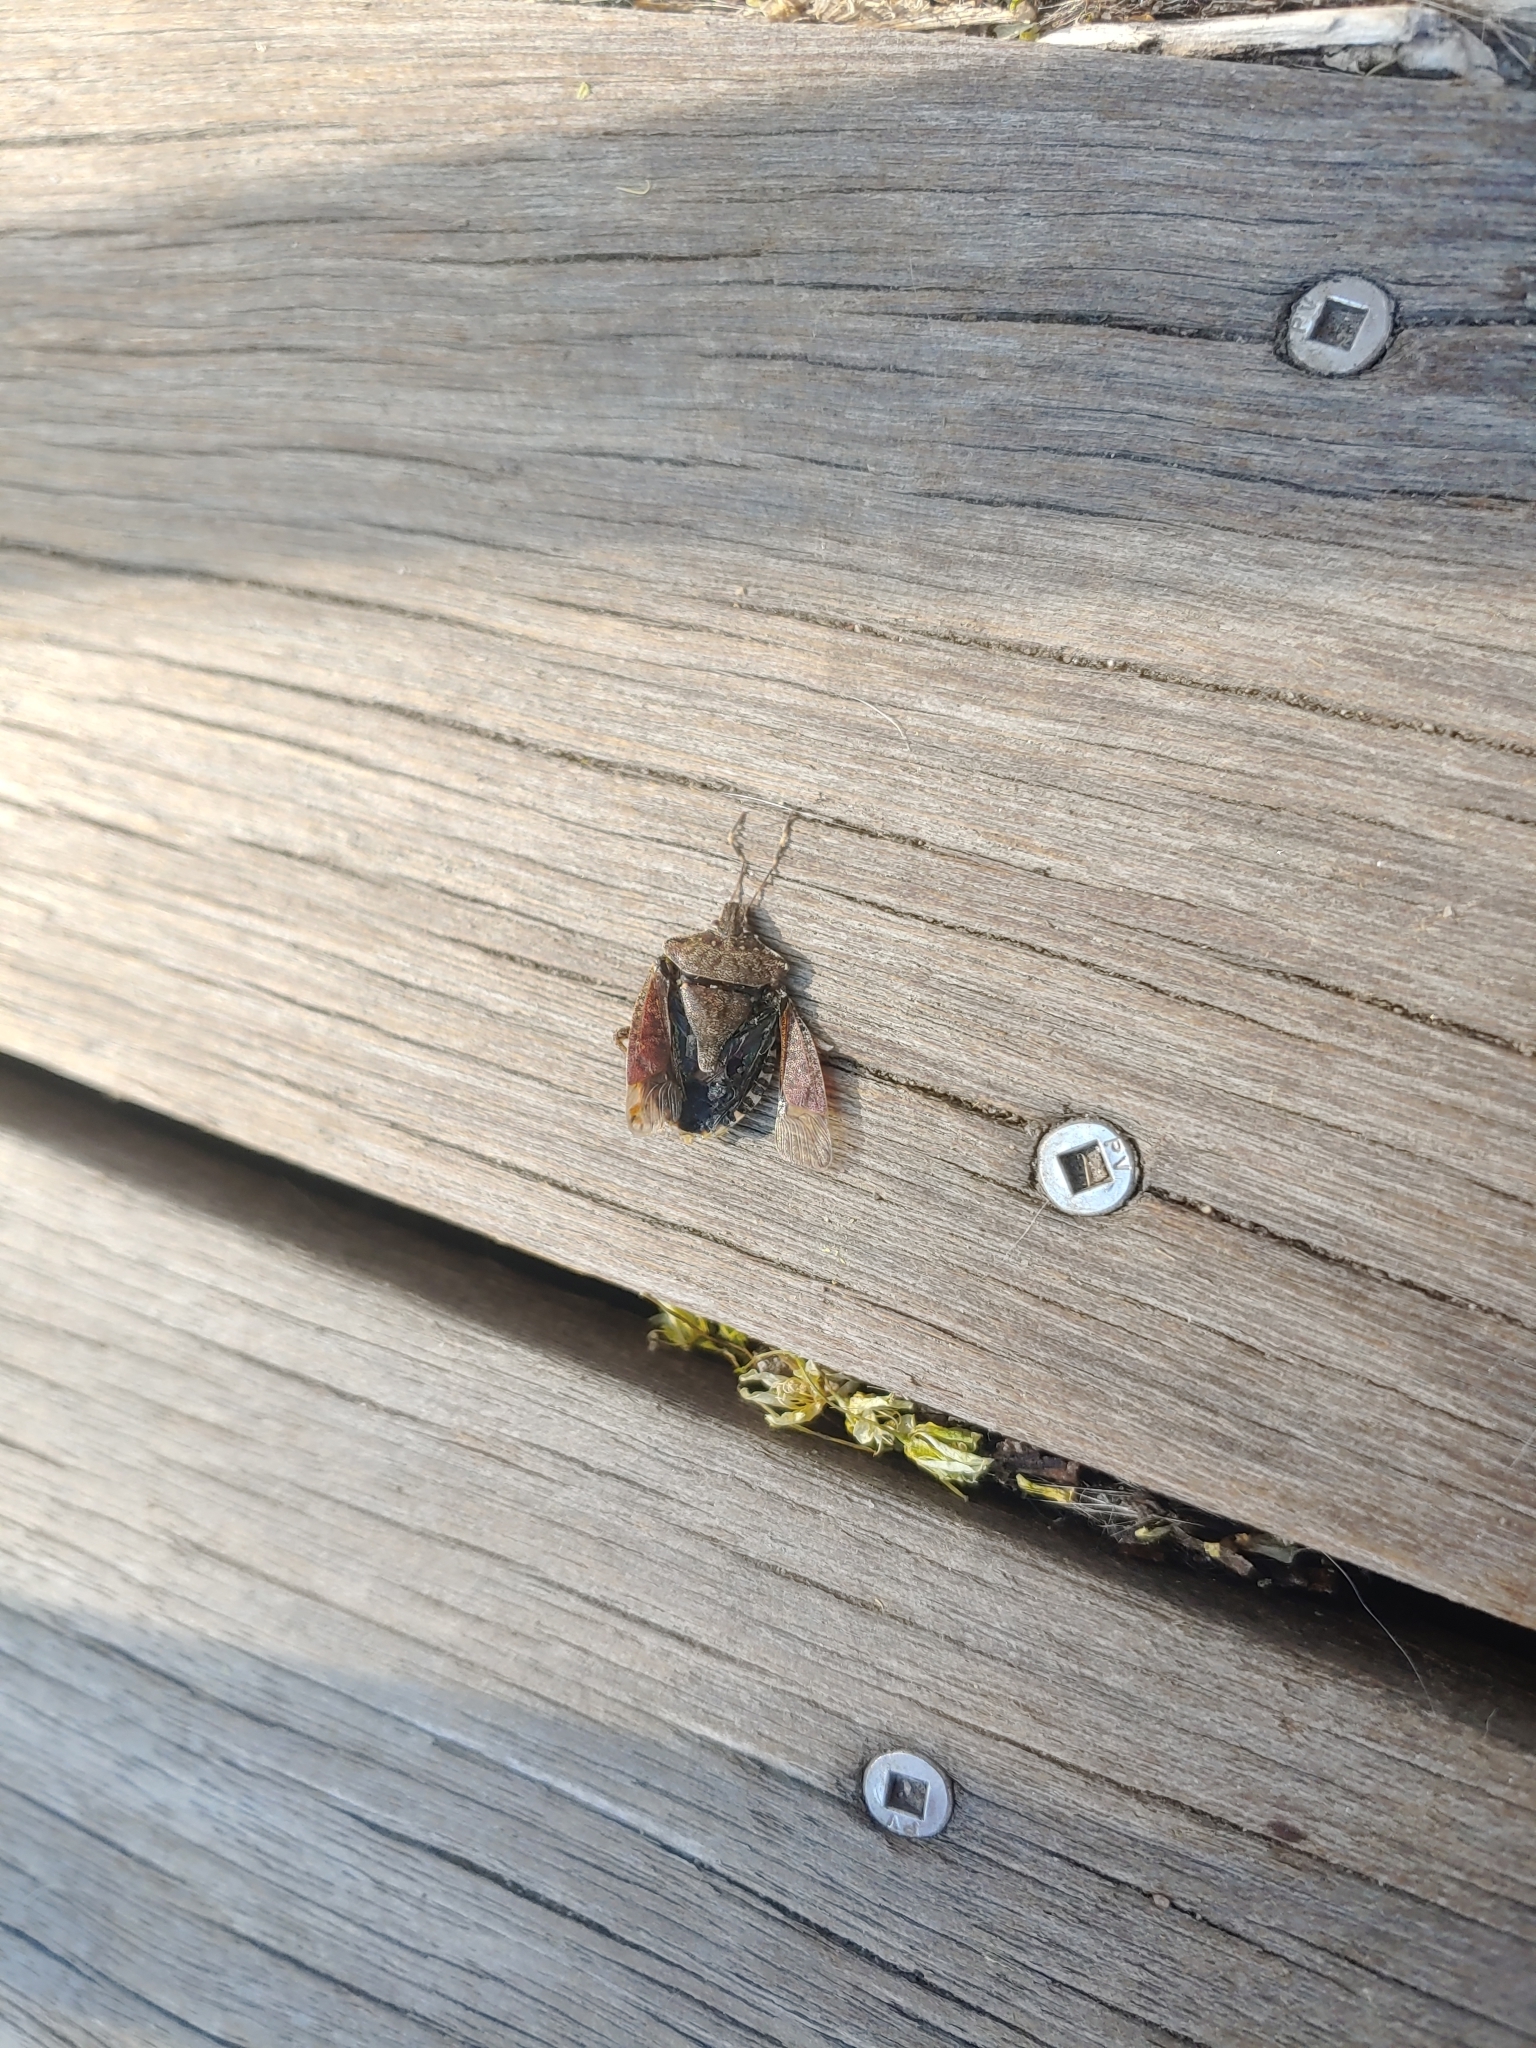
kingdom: Animalia
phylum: Arthropoda
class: Insecta
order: Hemiptera
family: Pentatomidae
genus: Halyomorpha
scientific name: Halyomorpha halys
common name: Brown marmorated stink bug
